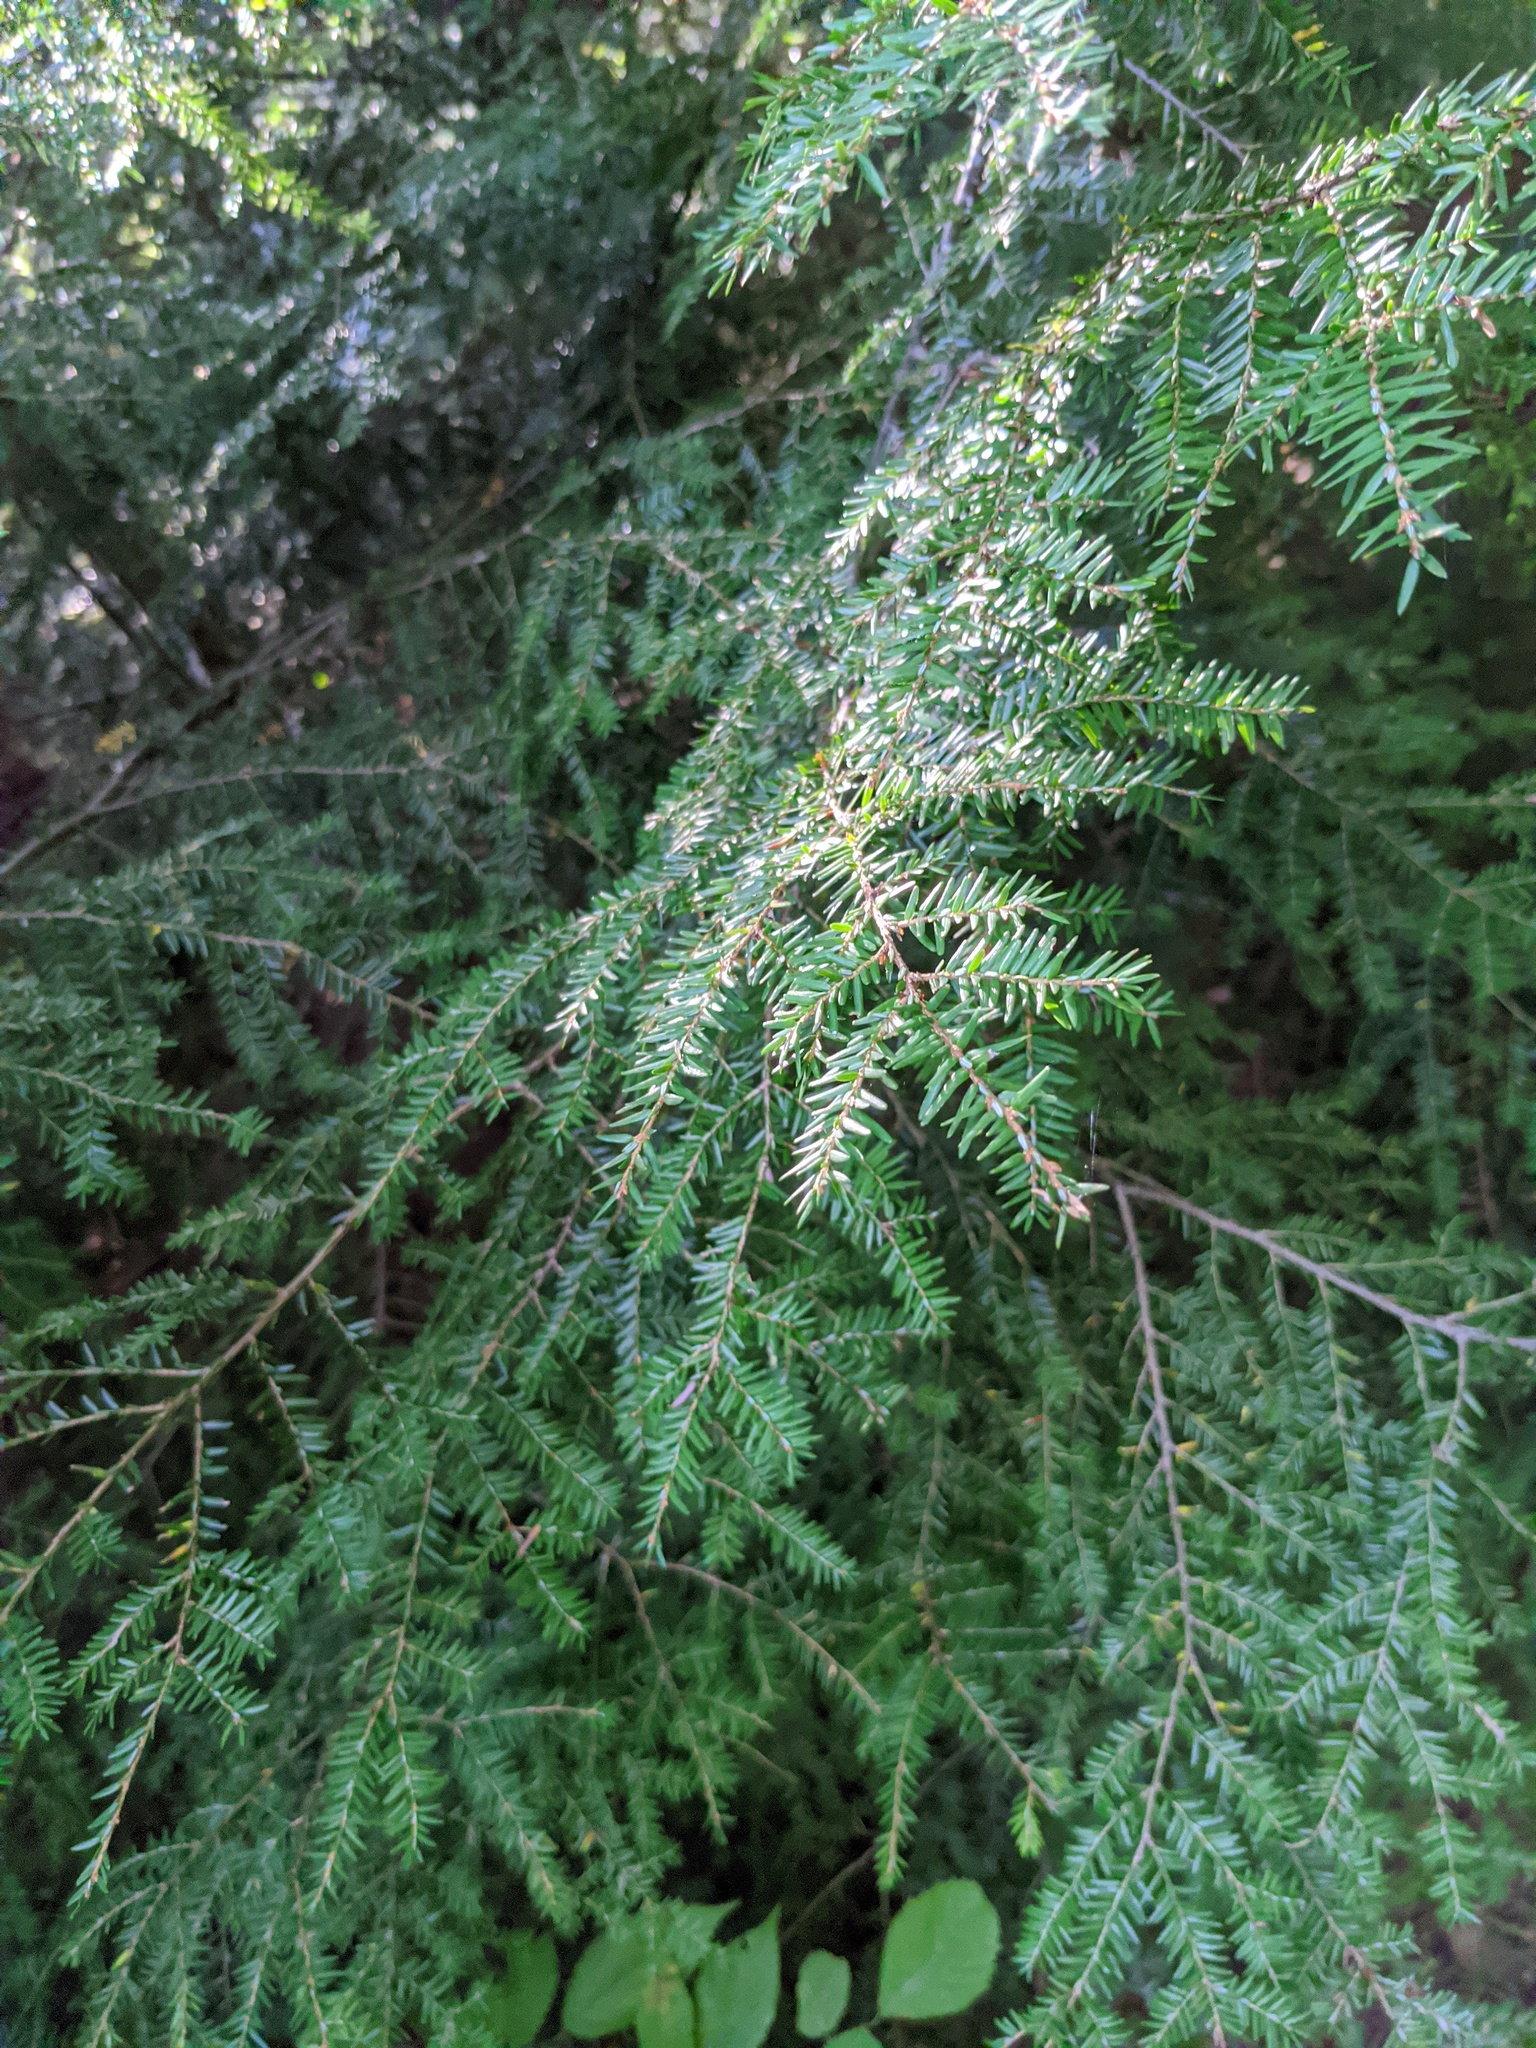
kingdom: Plantae
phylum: Tracheophyta
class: Pinopsida
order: Pinales
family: Pinaceae
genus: Tsuga
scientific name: Tsuga canadensis
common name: Eastern hemlock
